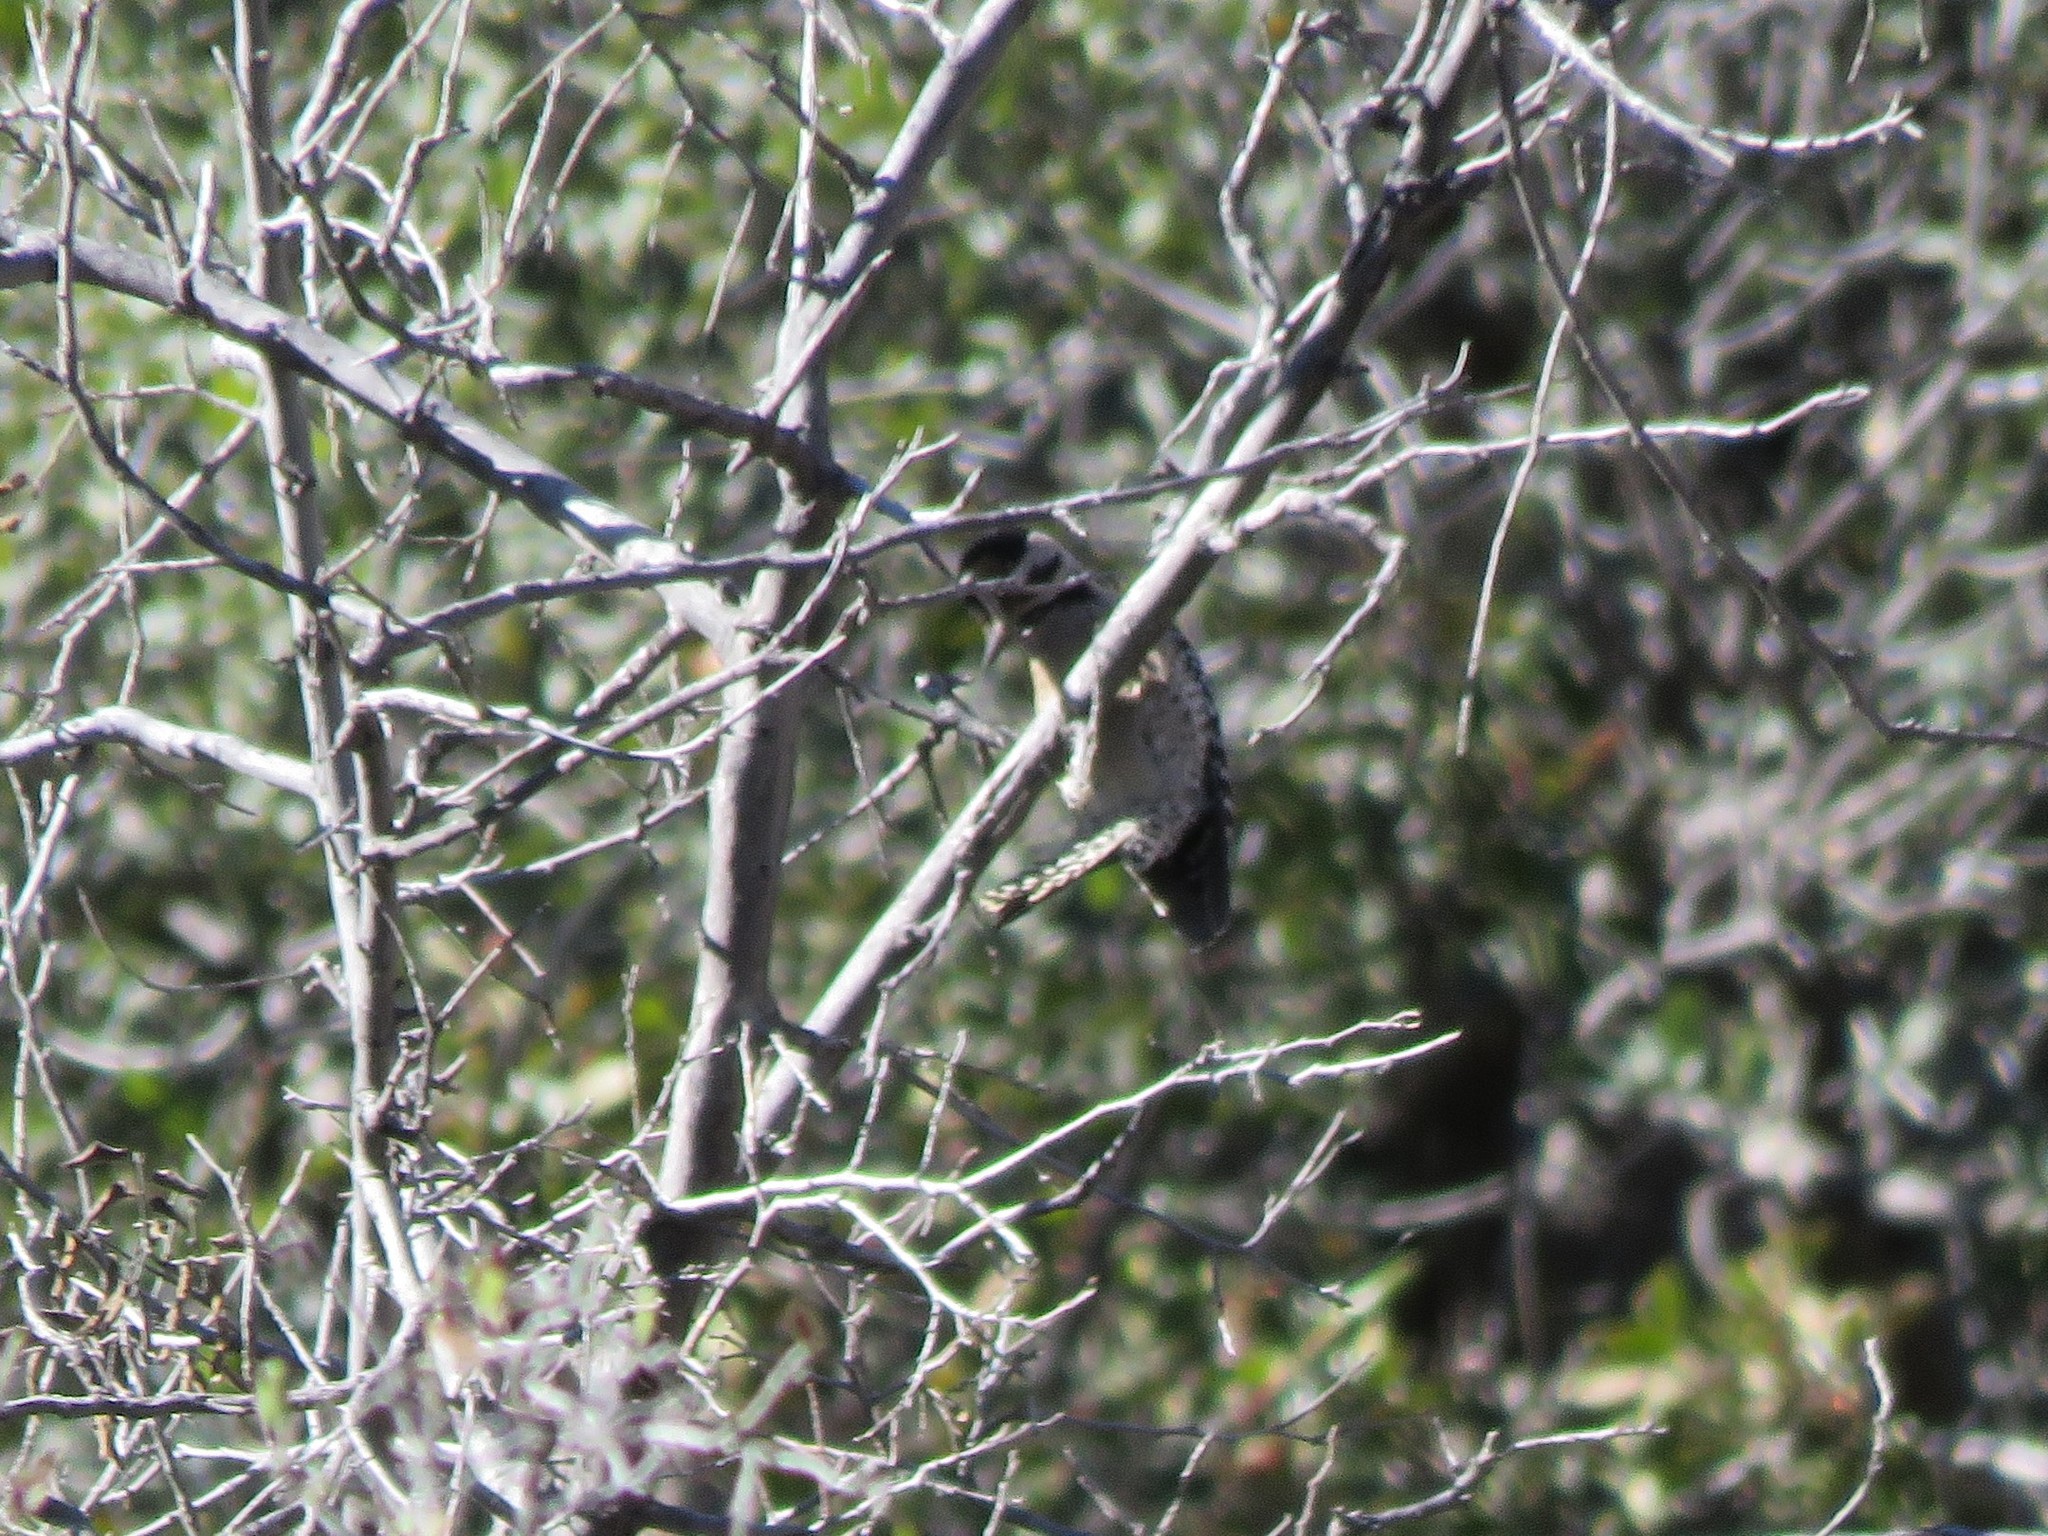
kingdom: Animalia
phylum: Chordata
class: Aves
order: Piciformes
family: Picidae
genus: Dryobates
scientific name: Dryobates scalaris
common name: Ladder-backed woodpecker
